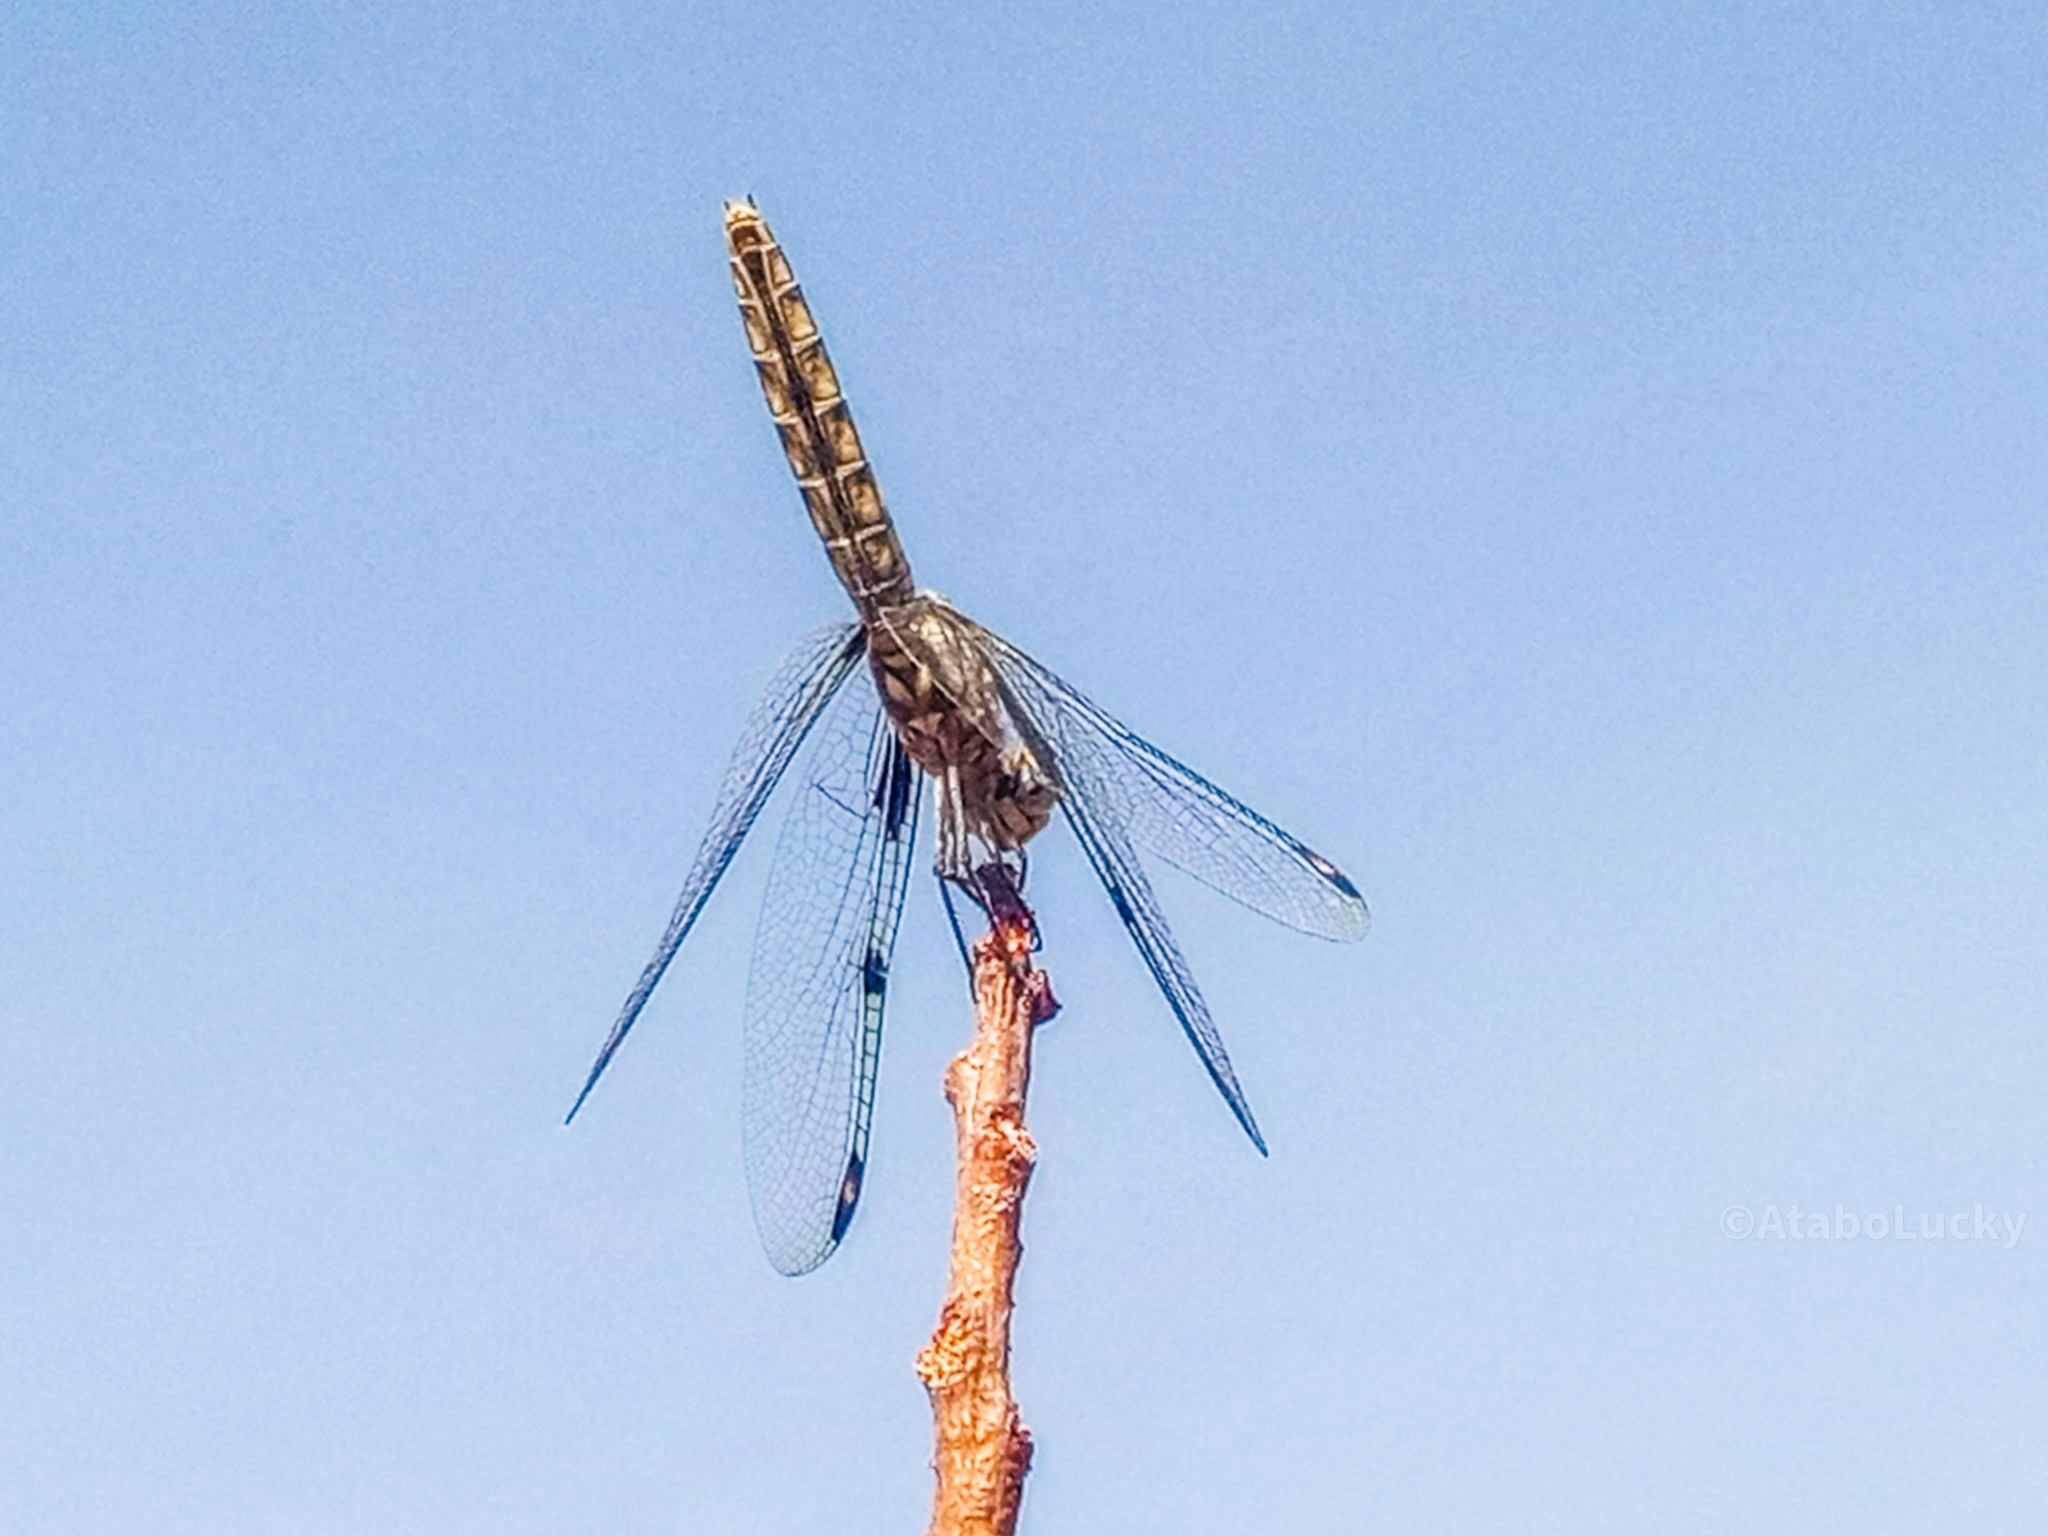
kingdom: Animalia
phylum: Arthropoda
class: Insecta
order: Odonata
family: Libellulidae
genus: Palpopleura
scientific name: Palpopleura deceptor
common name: Deceptive widow
